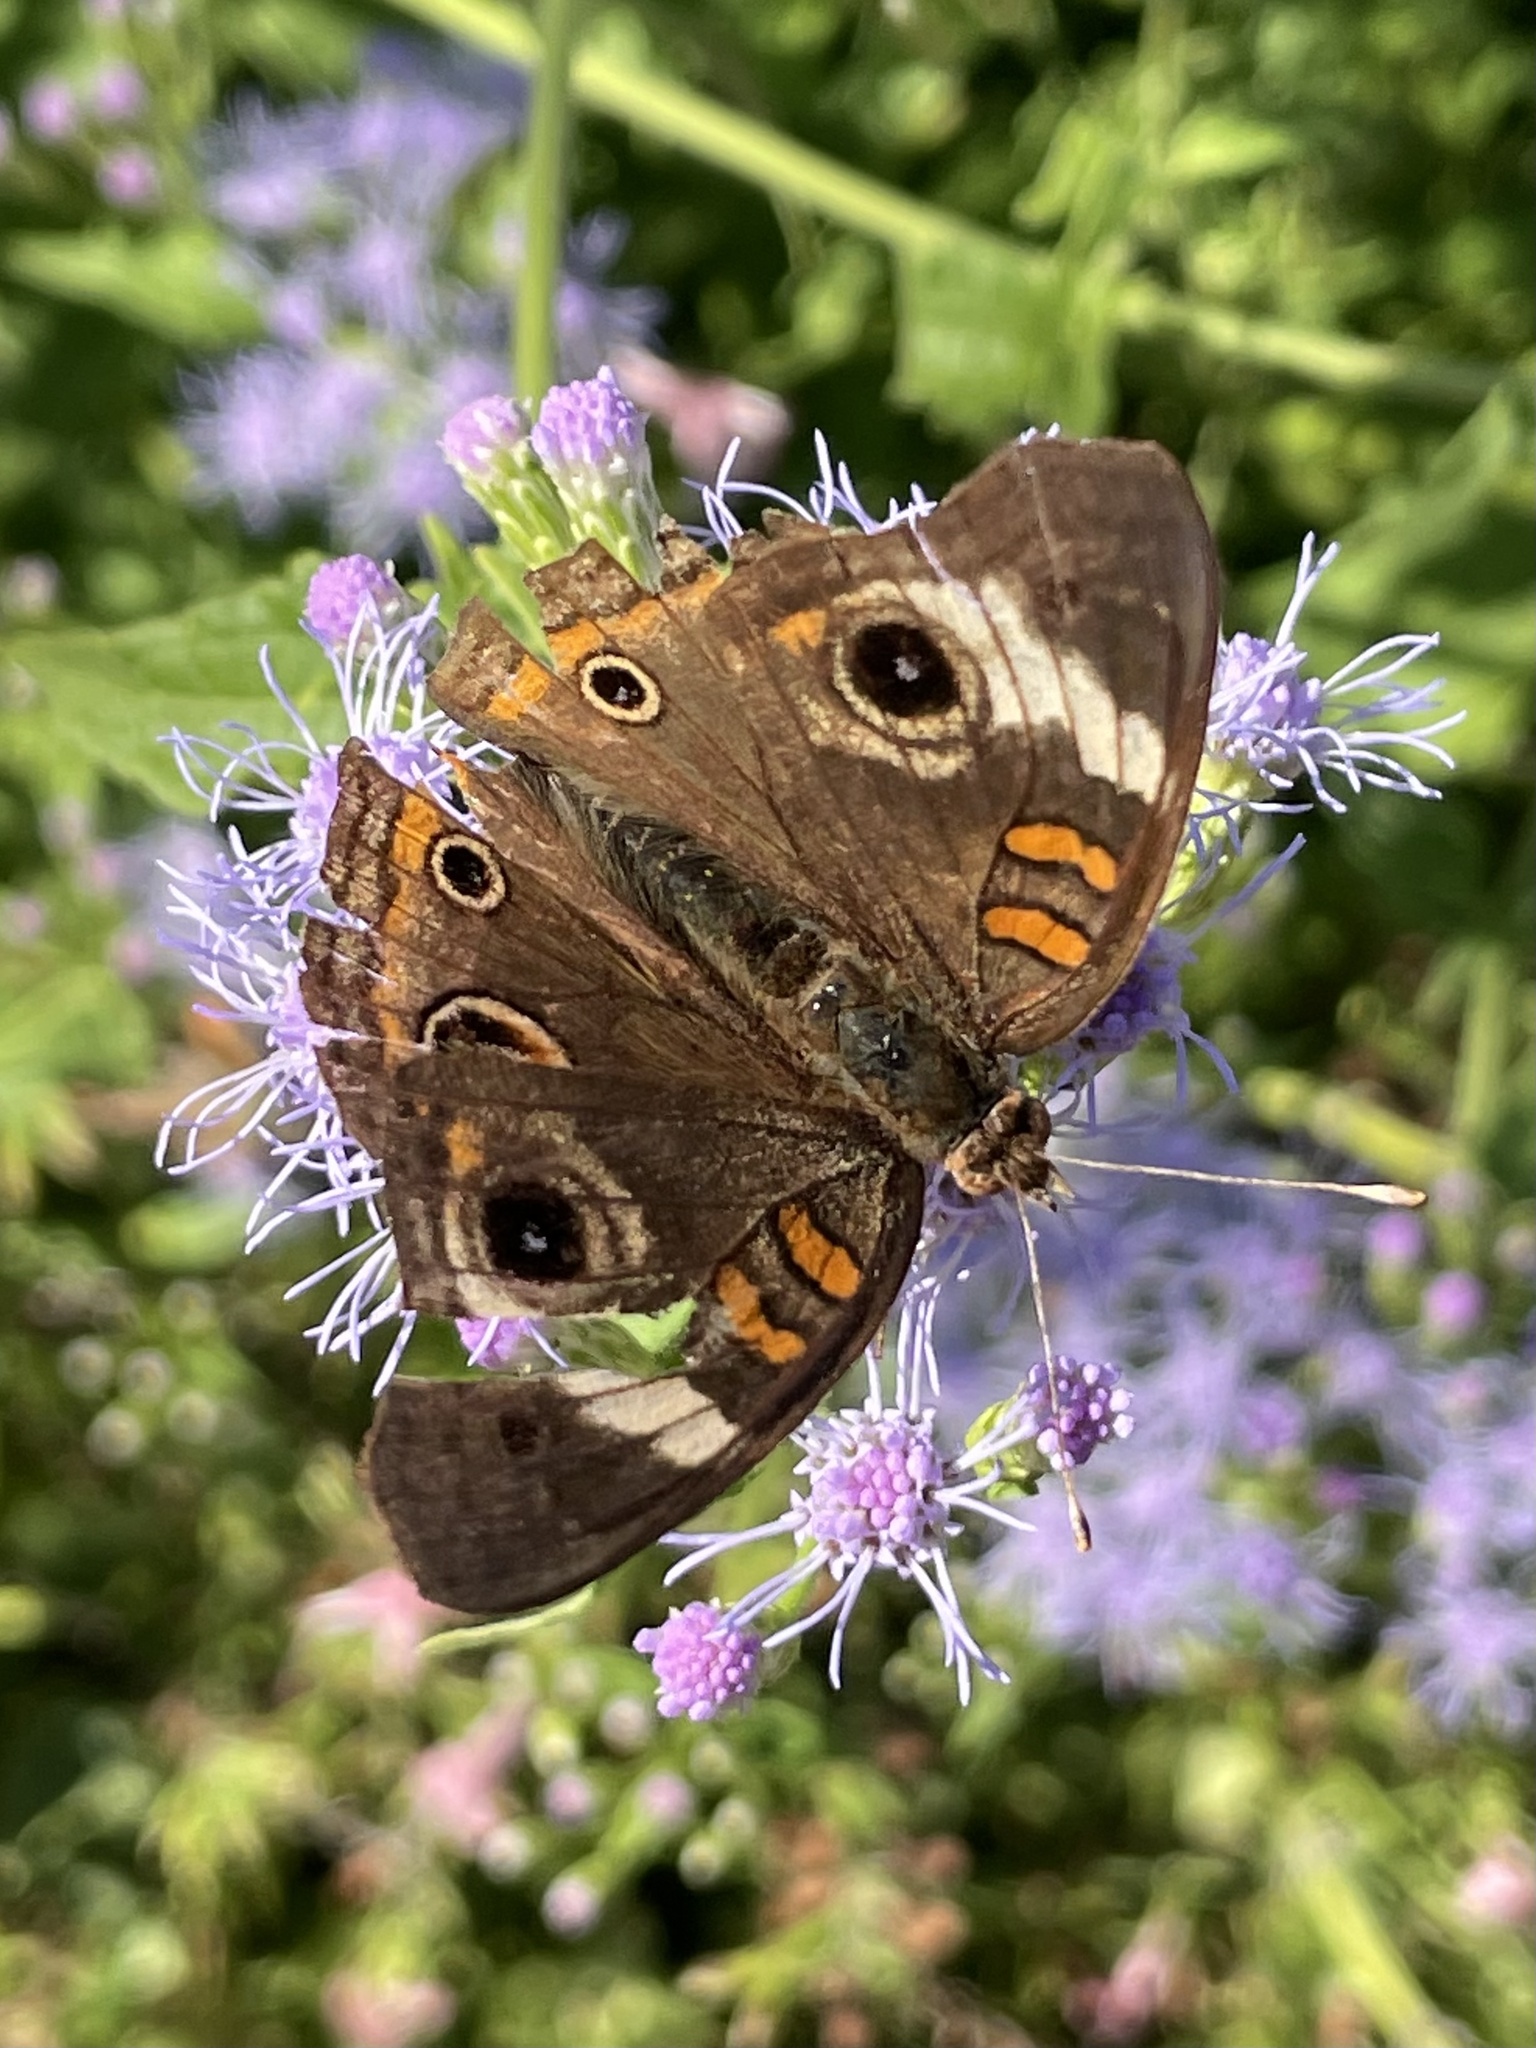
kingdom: Animalia
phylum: Arthropoda
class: Insecta
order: Lepidoptera
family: Nymphalidae
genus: Junonia
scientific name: Junonia coenia
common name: Common buckeye
